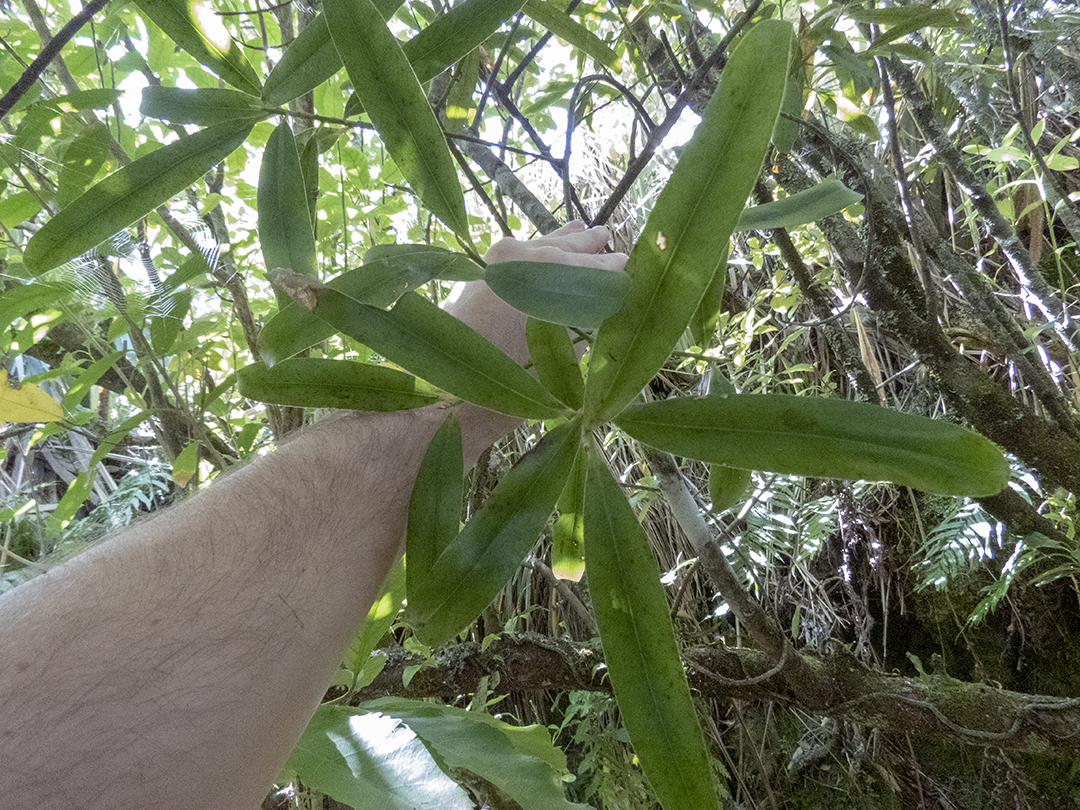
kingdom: Plantae
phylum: Tracheophyta
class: Magnoliopsida
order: Ericales
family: Primulaceae
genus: Myrsine
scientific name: Myrsine salicina
